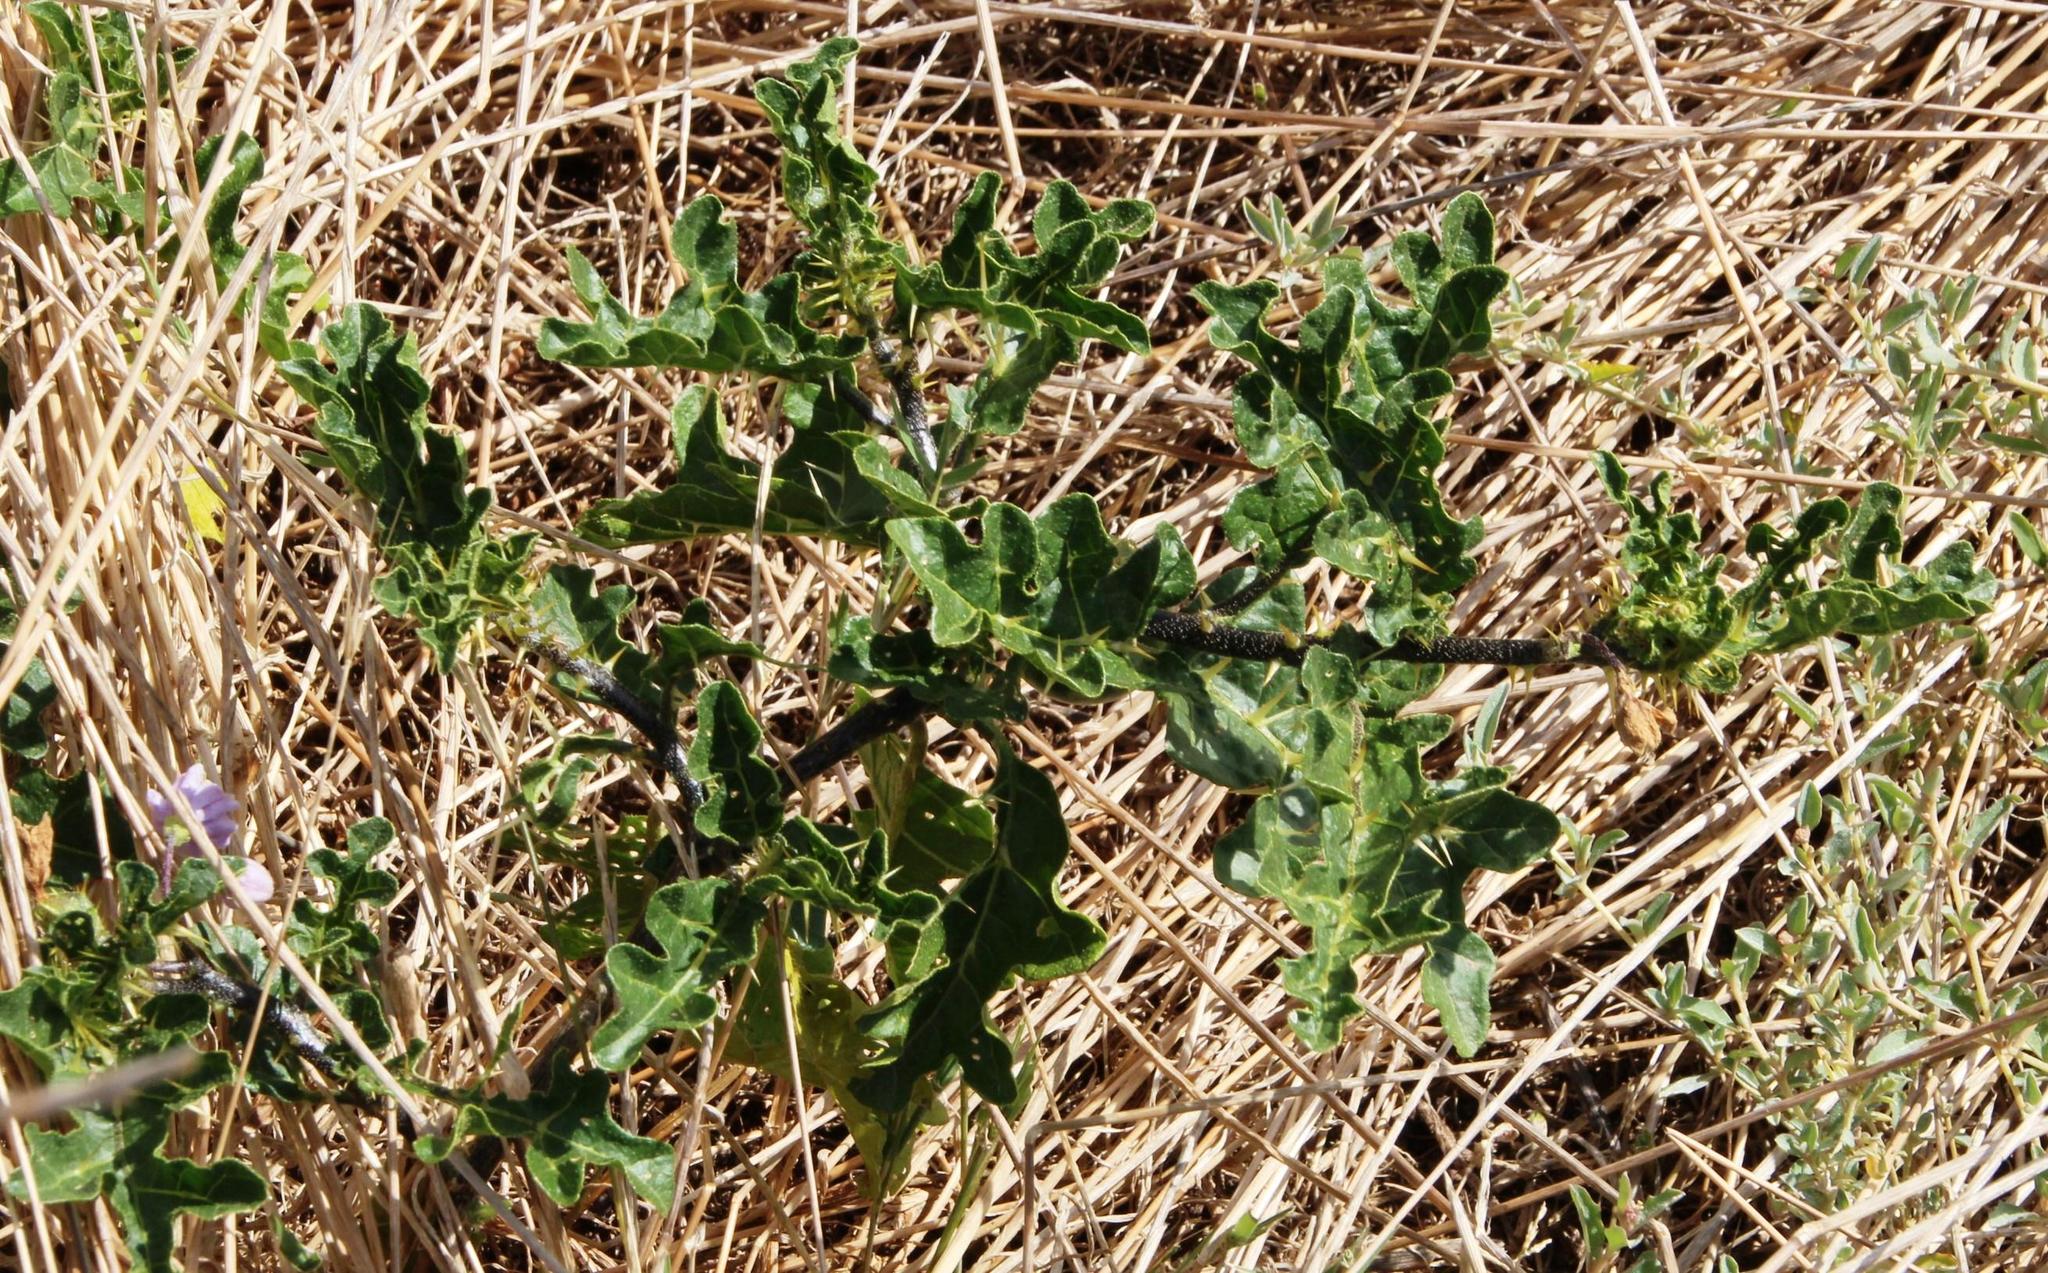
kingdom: Plantae
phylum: Tracheophyta
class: Magnoliopsida
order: Solanales
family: Solanaceae
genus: Solanum
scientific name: Solanum linnaeanum
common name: Nightshade
